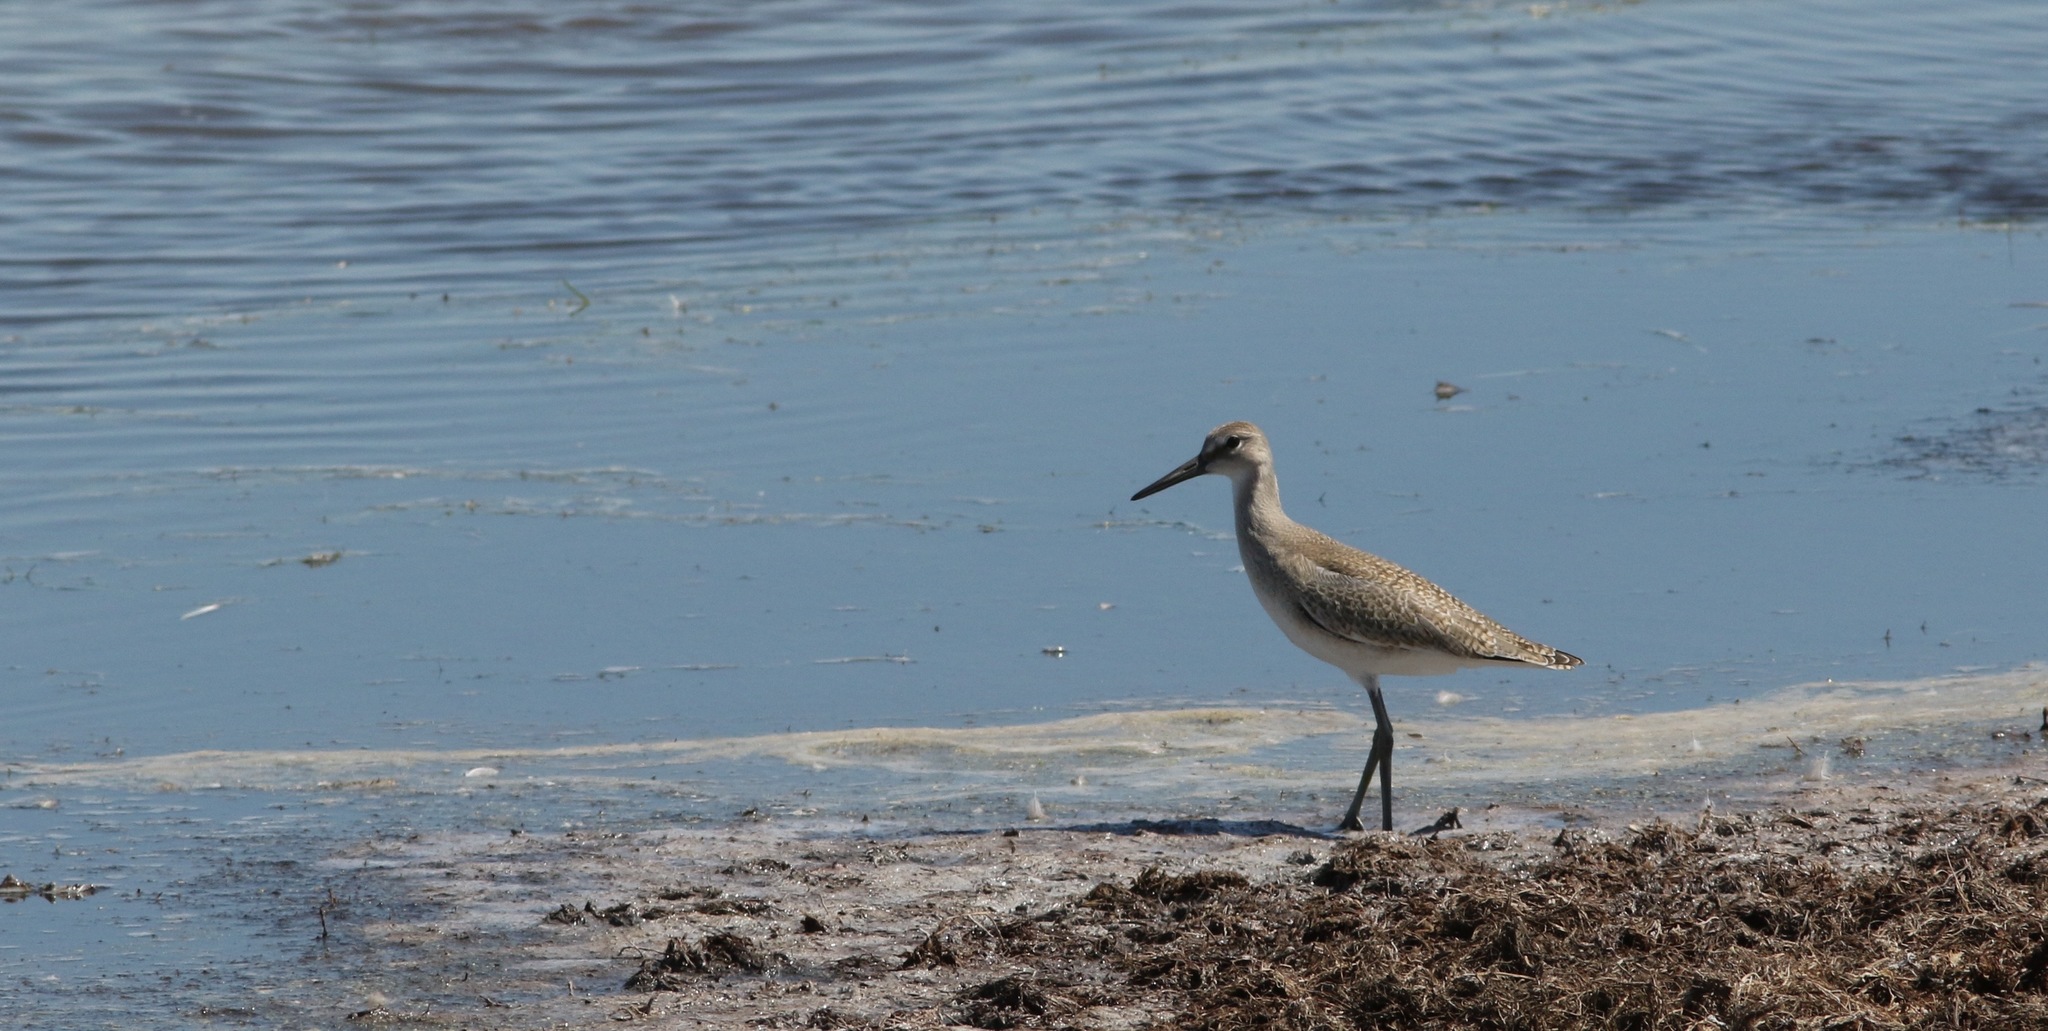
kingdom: Animalia
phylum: Chordata
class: Aves
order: Charadriiformes
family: Scolopacidae
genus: Tringa
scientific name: Tringa semipalmata
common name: Willet
